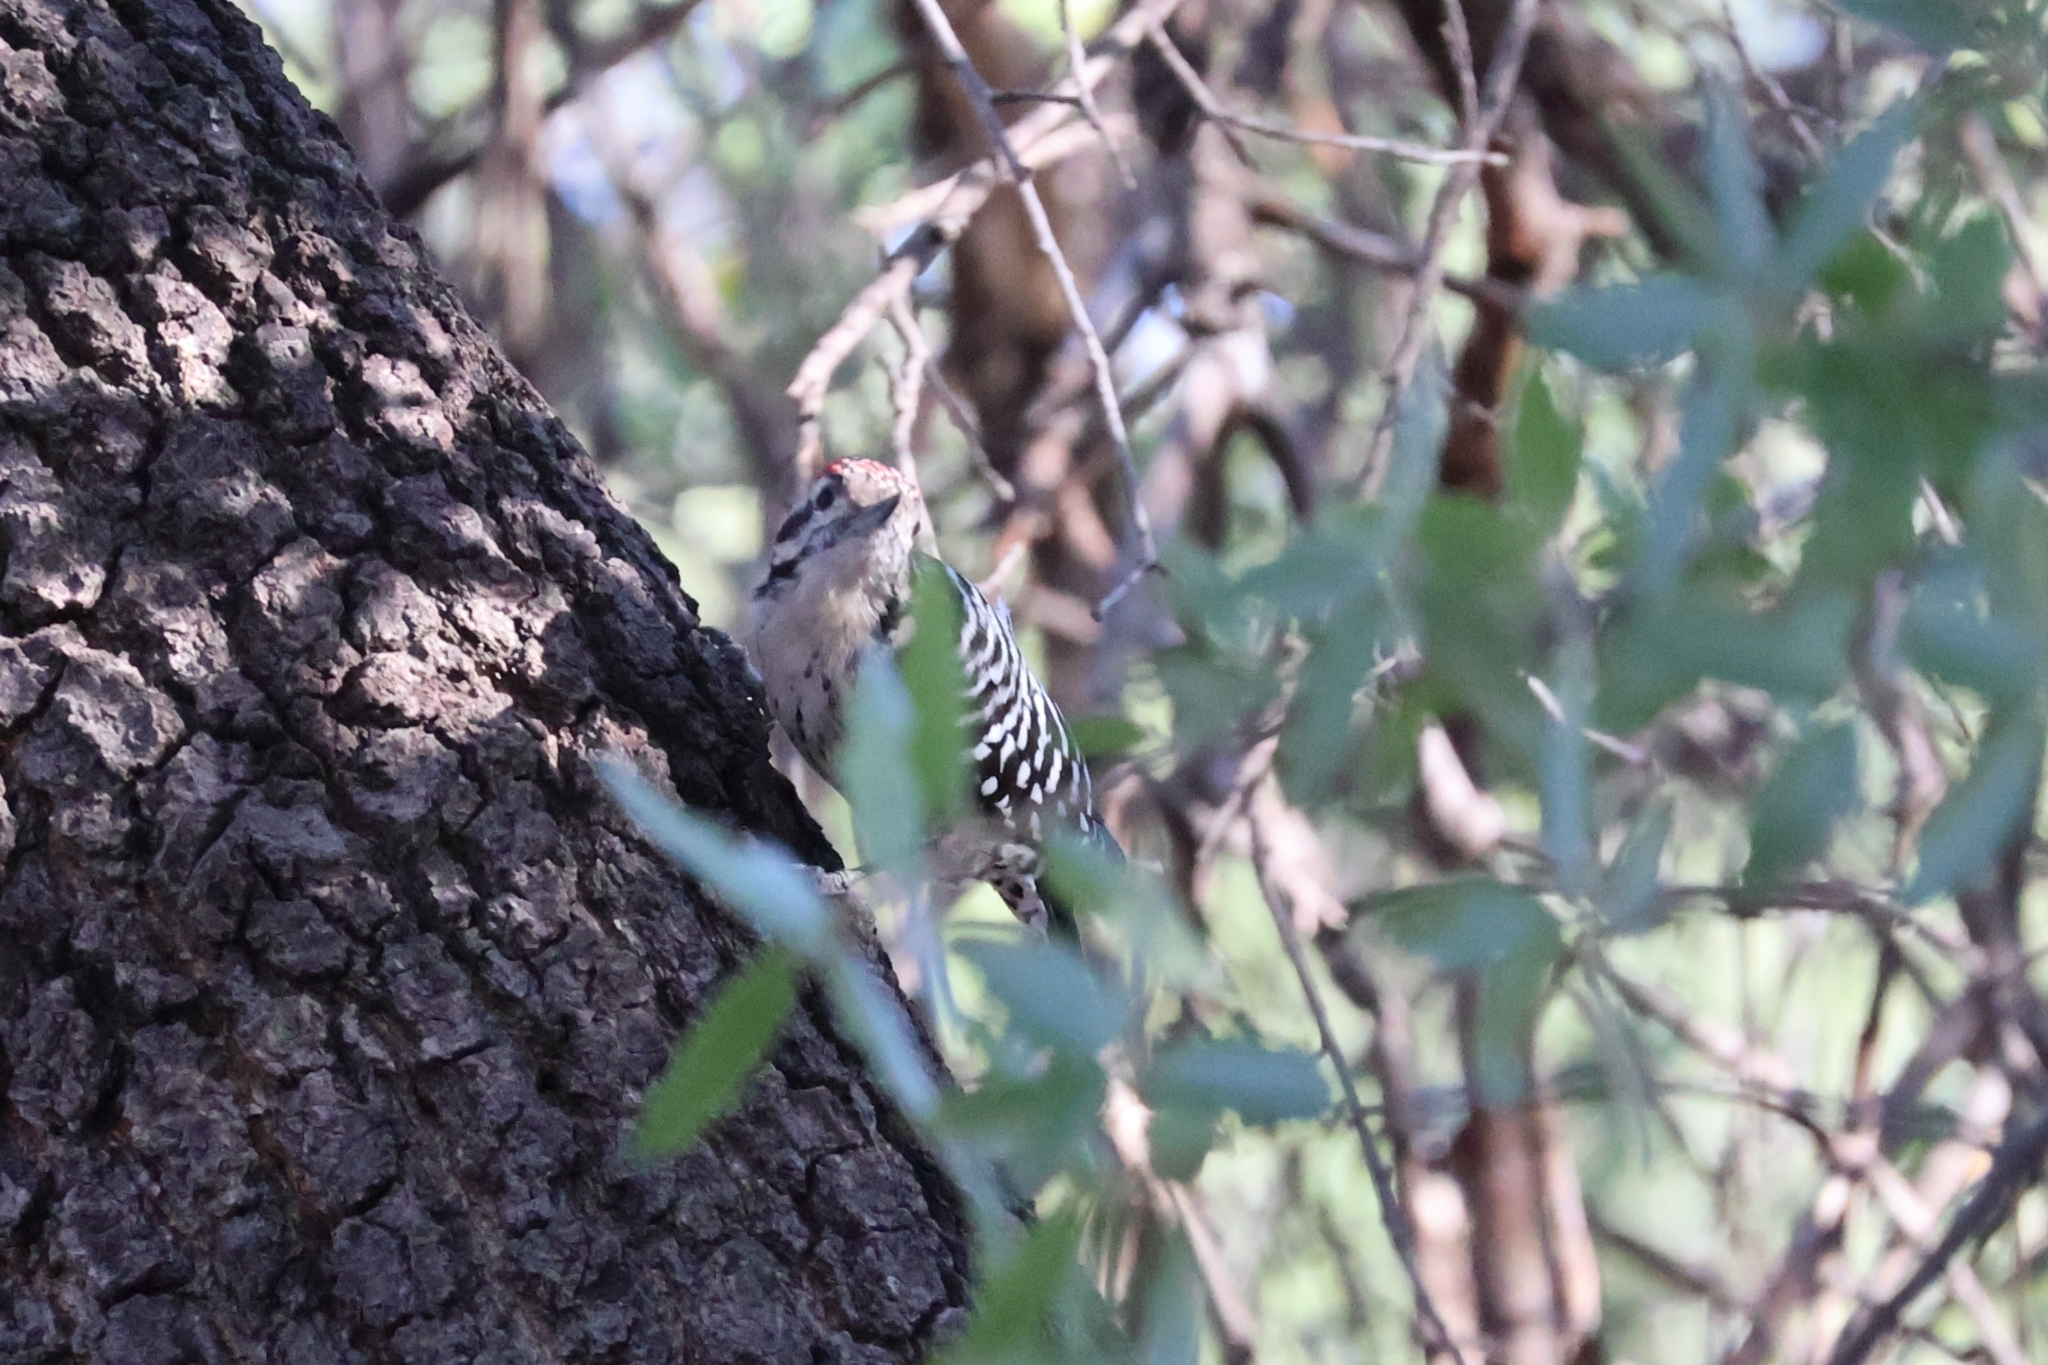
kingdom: Animalia
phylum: Chordata
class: Aves
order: Piciformes
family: Picidae
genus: Dryobates
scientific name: Dryobates scalaris
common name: Ladder-backed woodpecker
